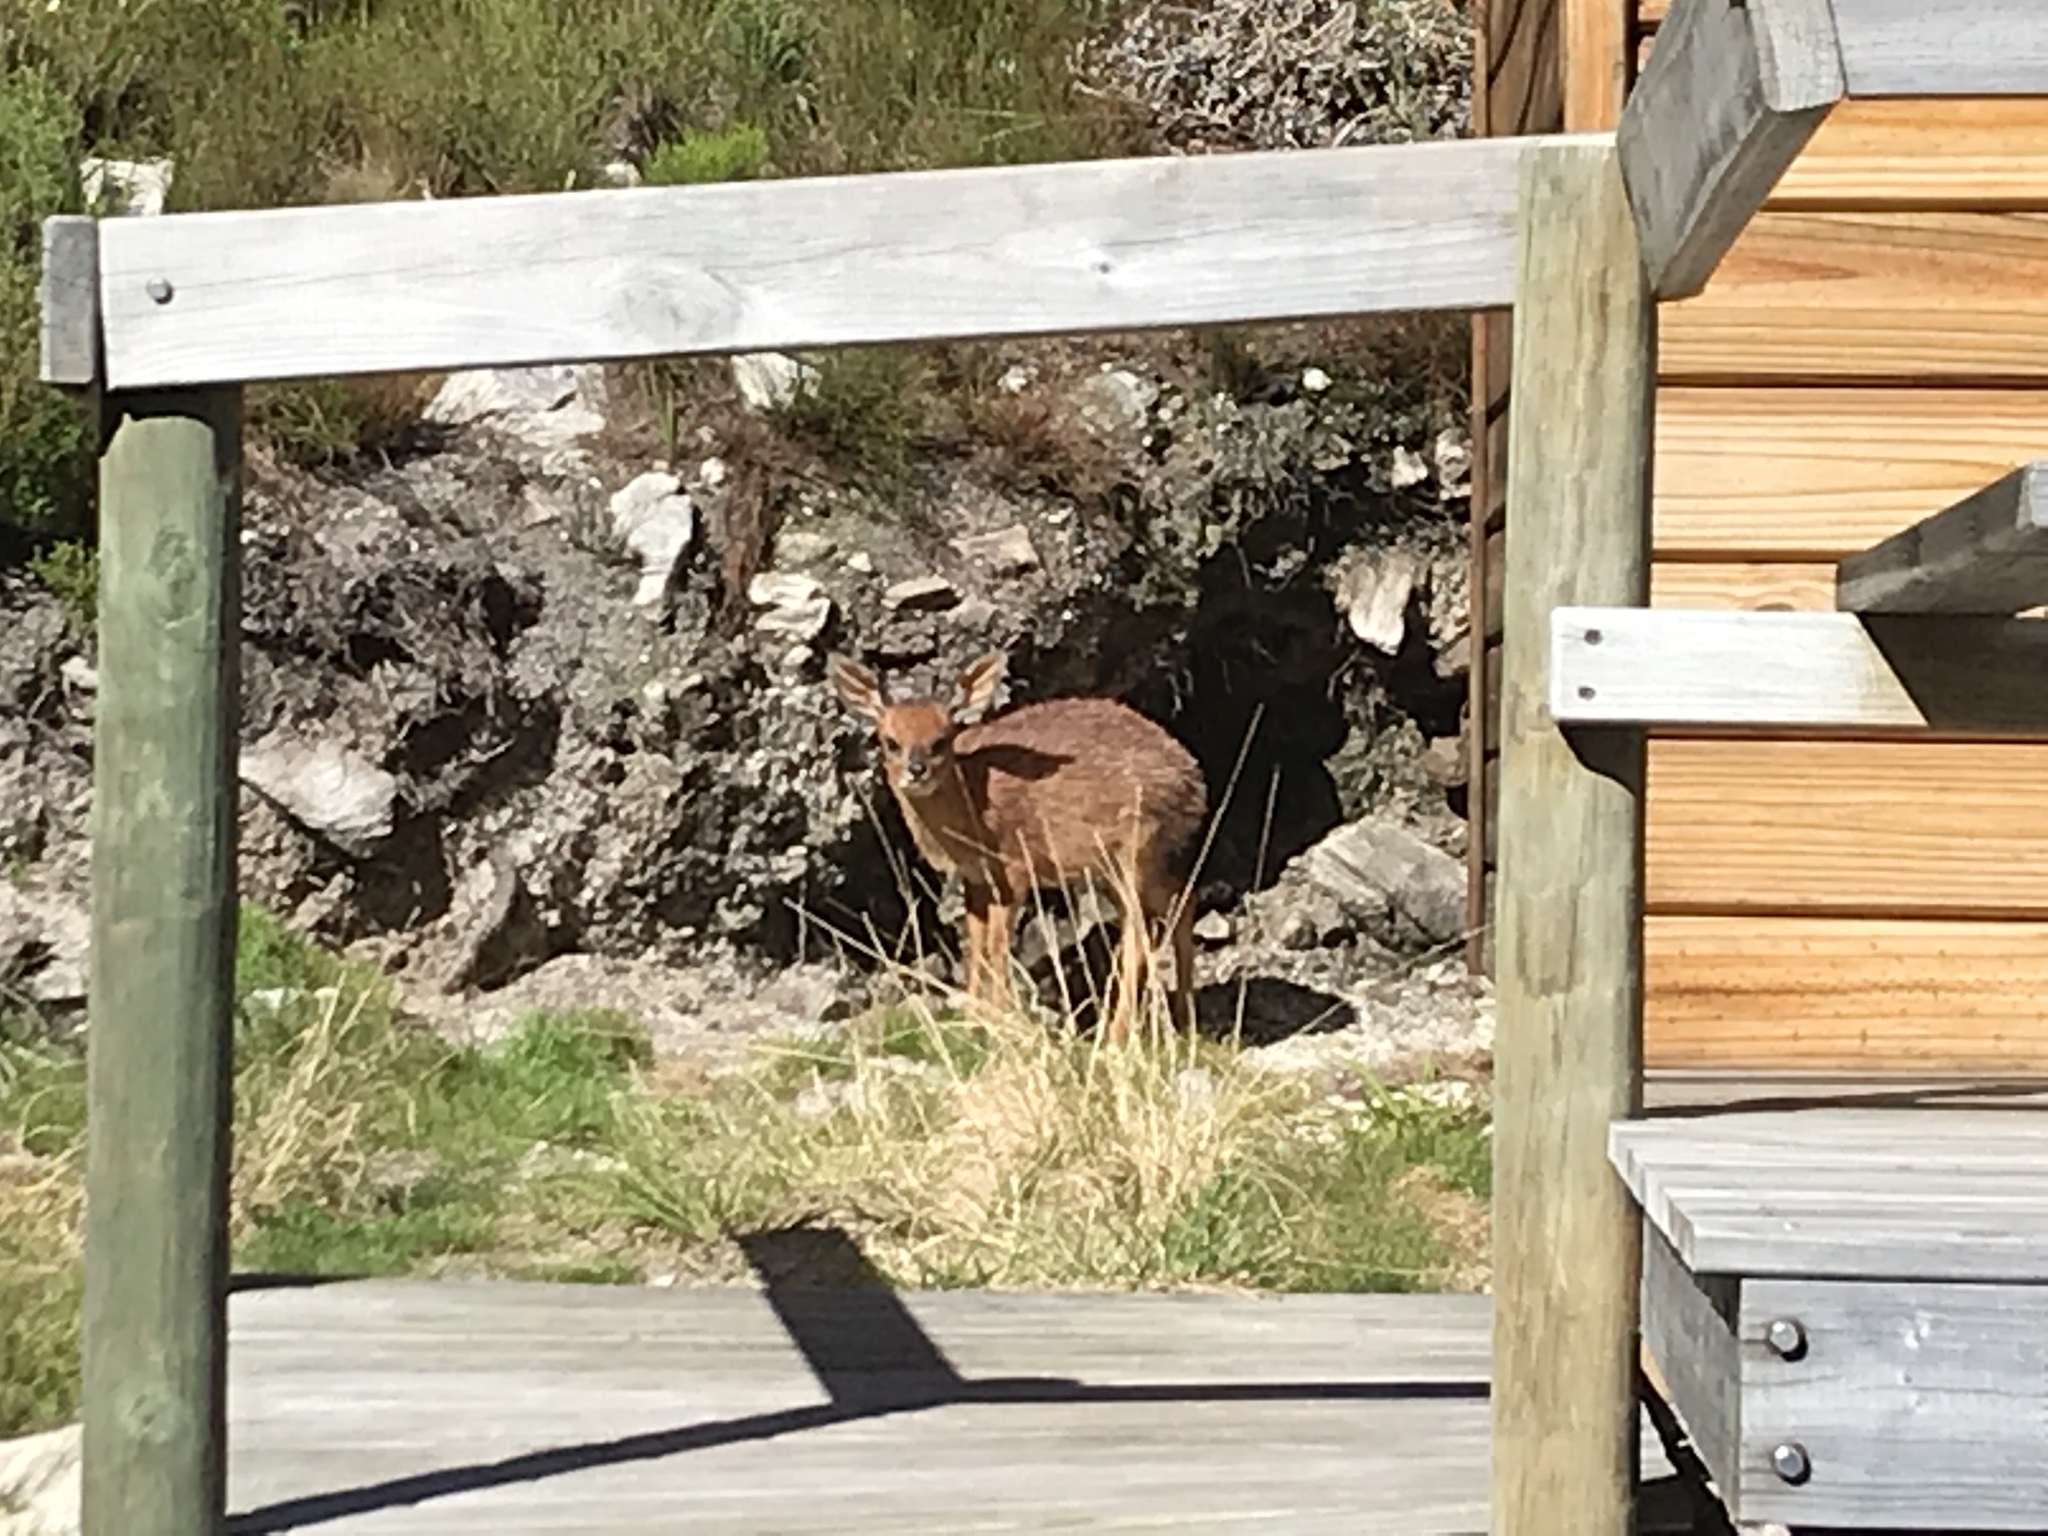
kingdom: Animalia
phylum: Chordata
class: Mammalia
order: Artiodactyla
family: Bovidae
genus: Raphicerus
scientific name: Raphicerus melanotis
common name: Cape grysbok
